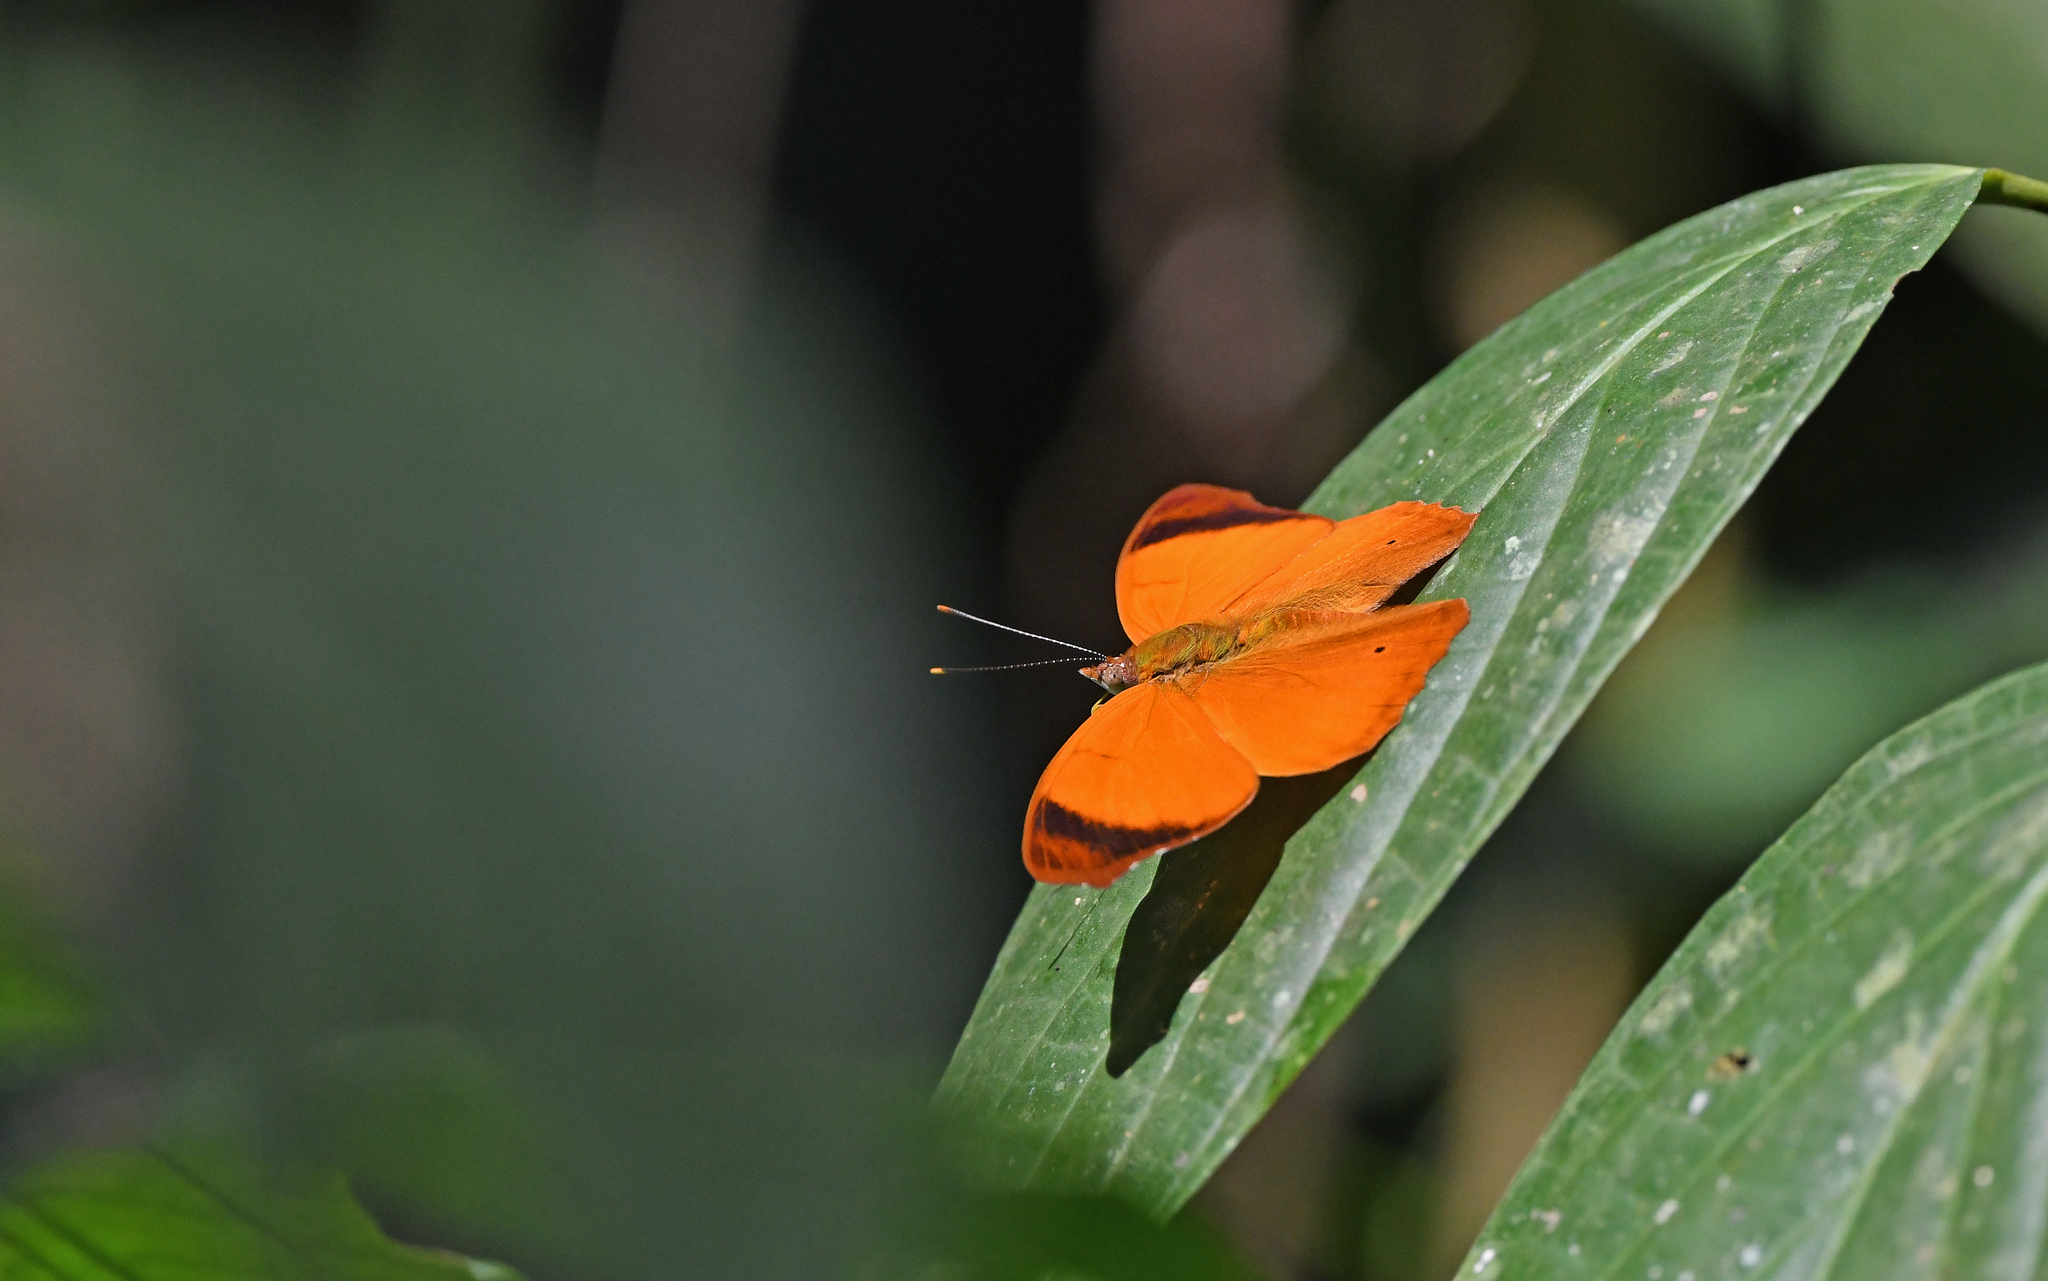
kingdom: Animalia
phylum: Arthropoda
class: Insecta
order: Lepidoptera
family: Nymphalidae
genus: Temenis
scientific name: Temenis laothoe
